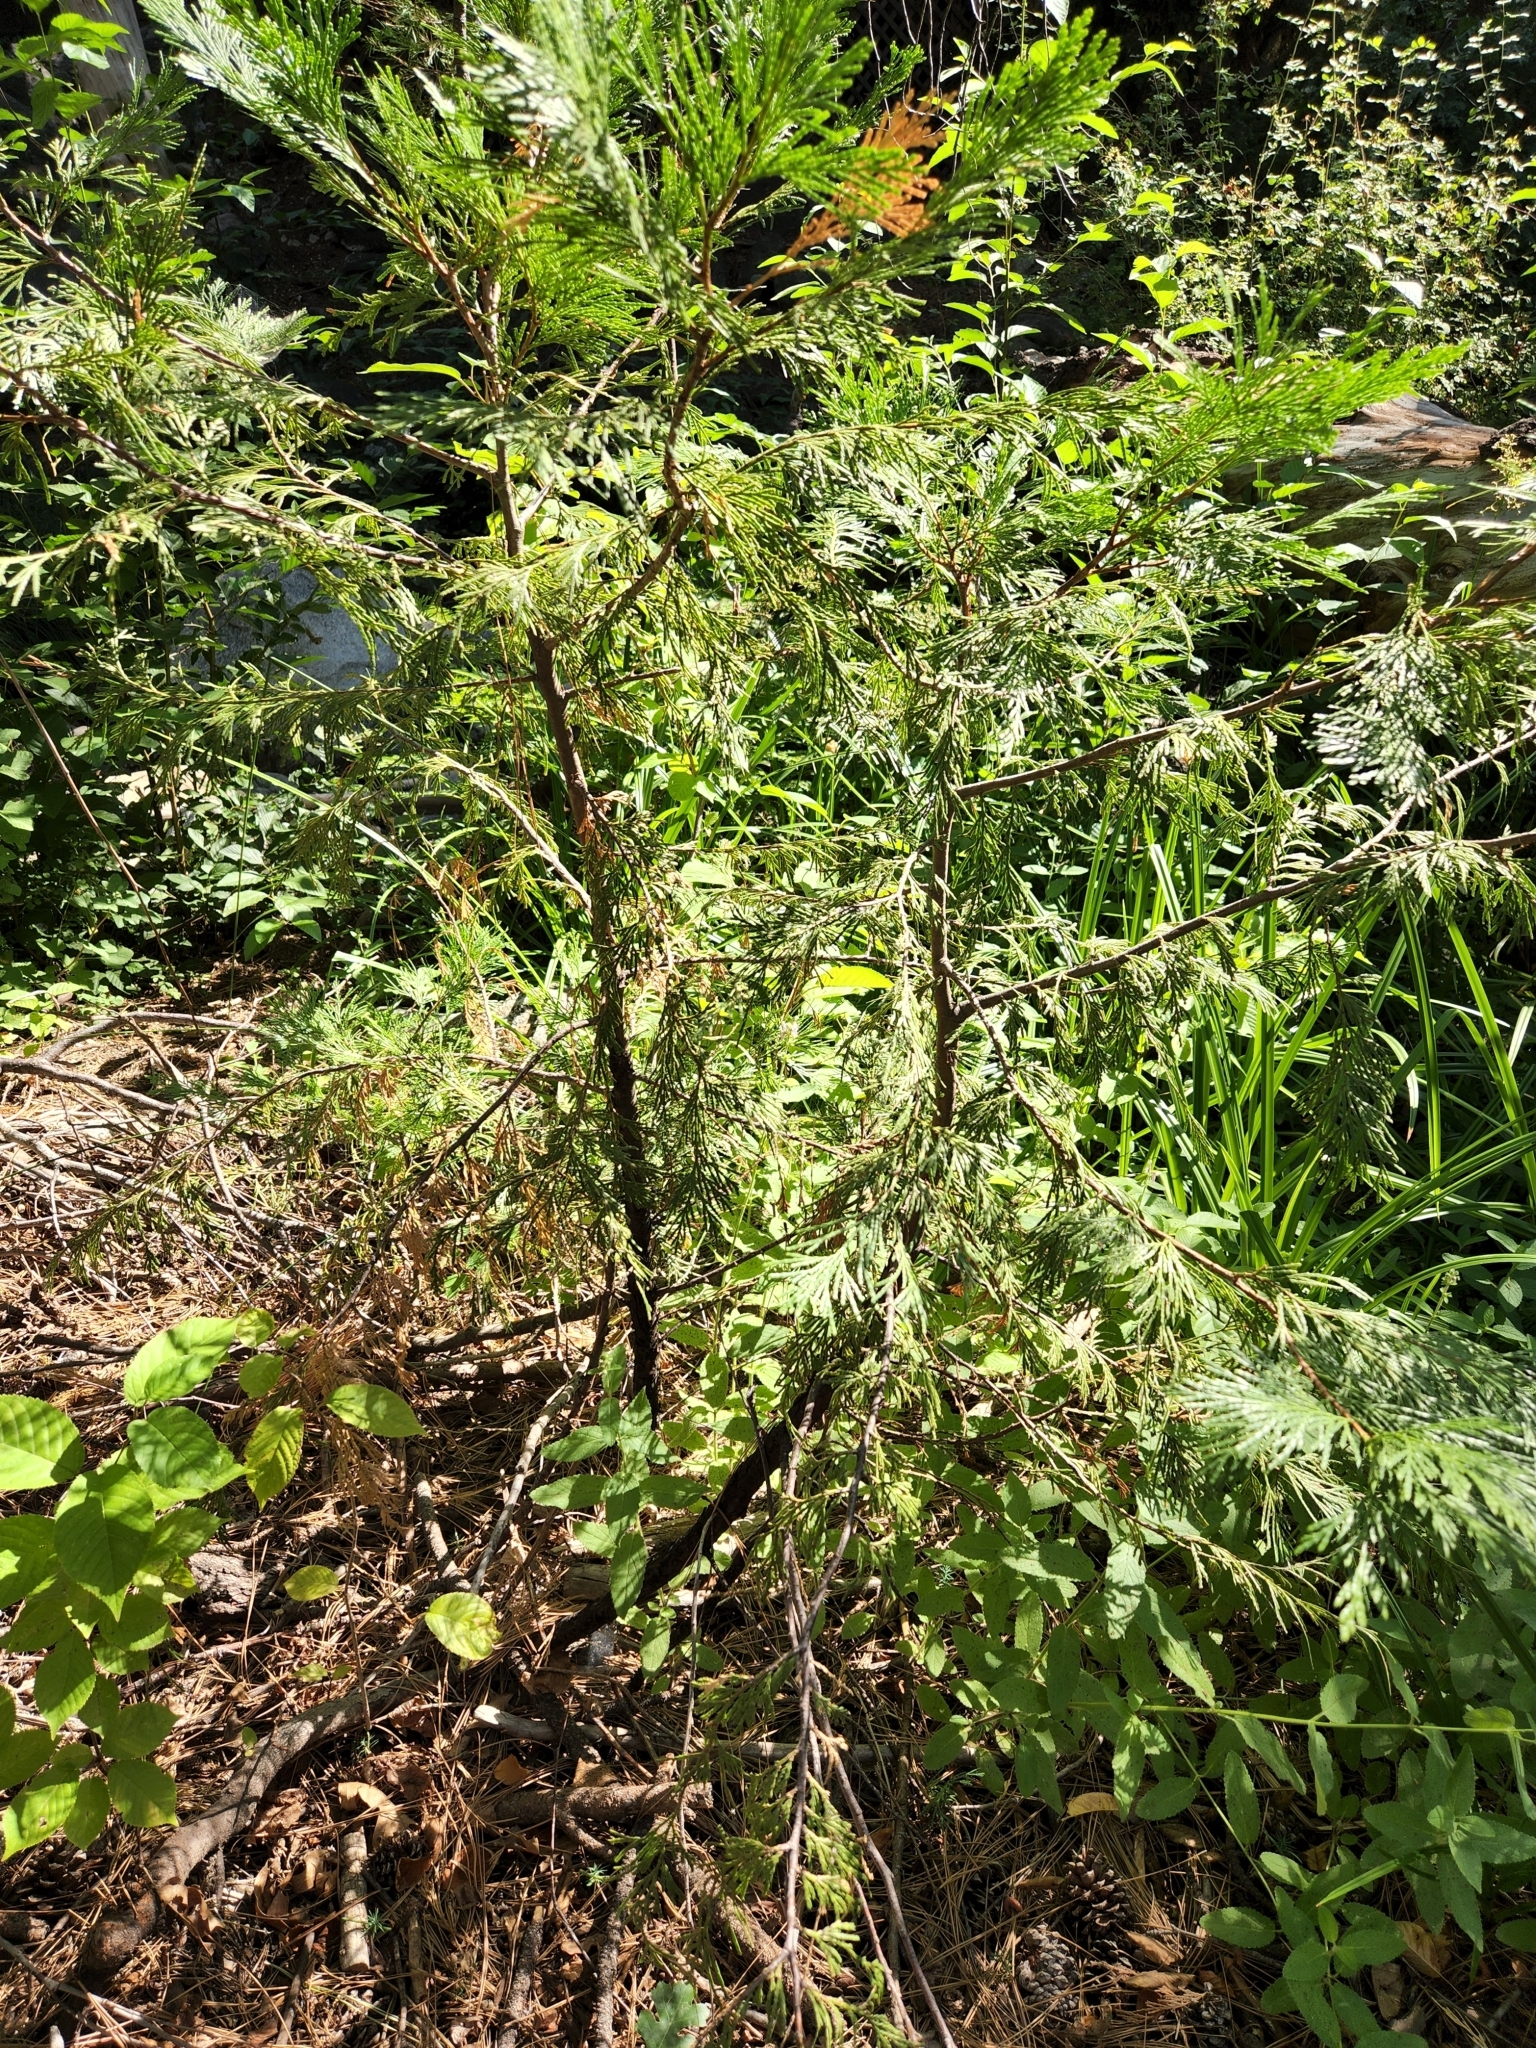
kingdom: Plantae
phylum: Tracheophyta
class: Pinopsida
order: Pinales
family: Cupressaceae
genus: Calocedrus
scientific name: Calocedrus decurrens
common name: Californian incense-cedar
